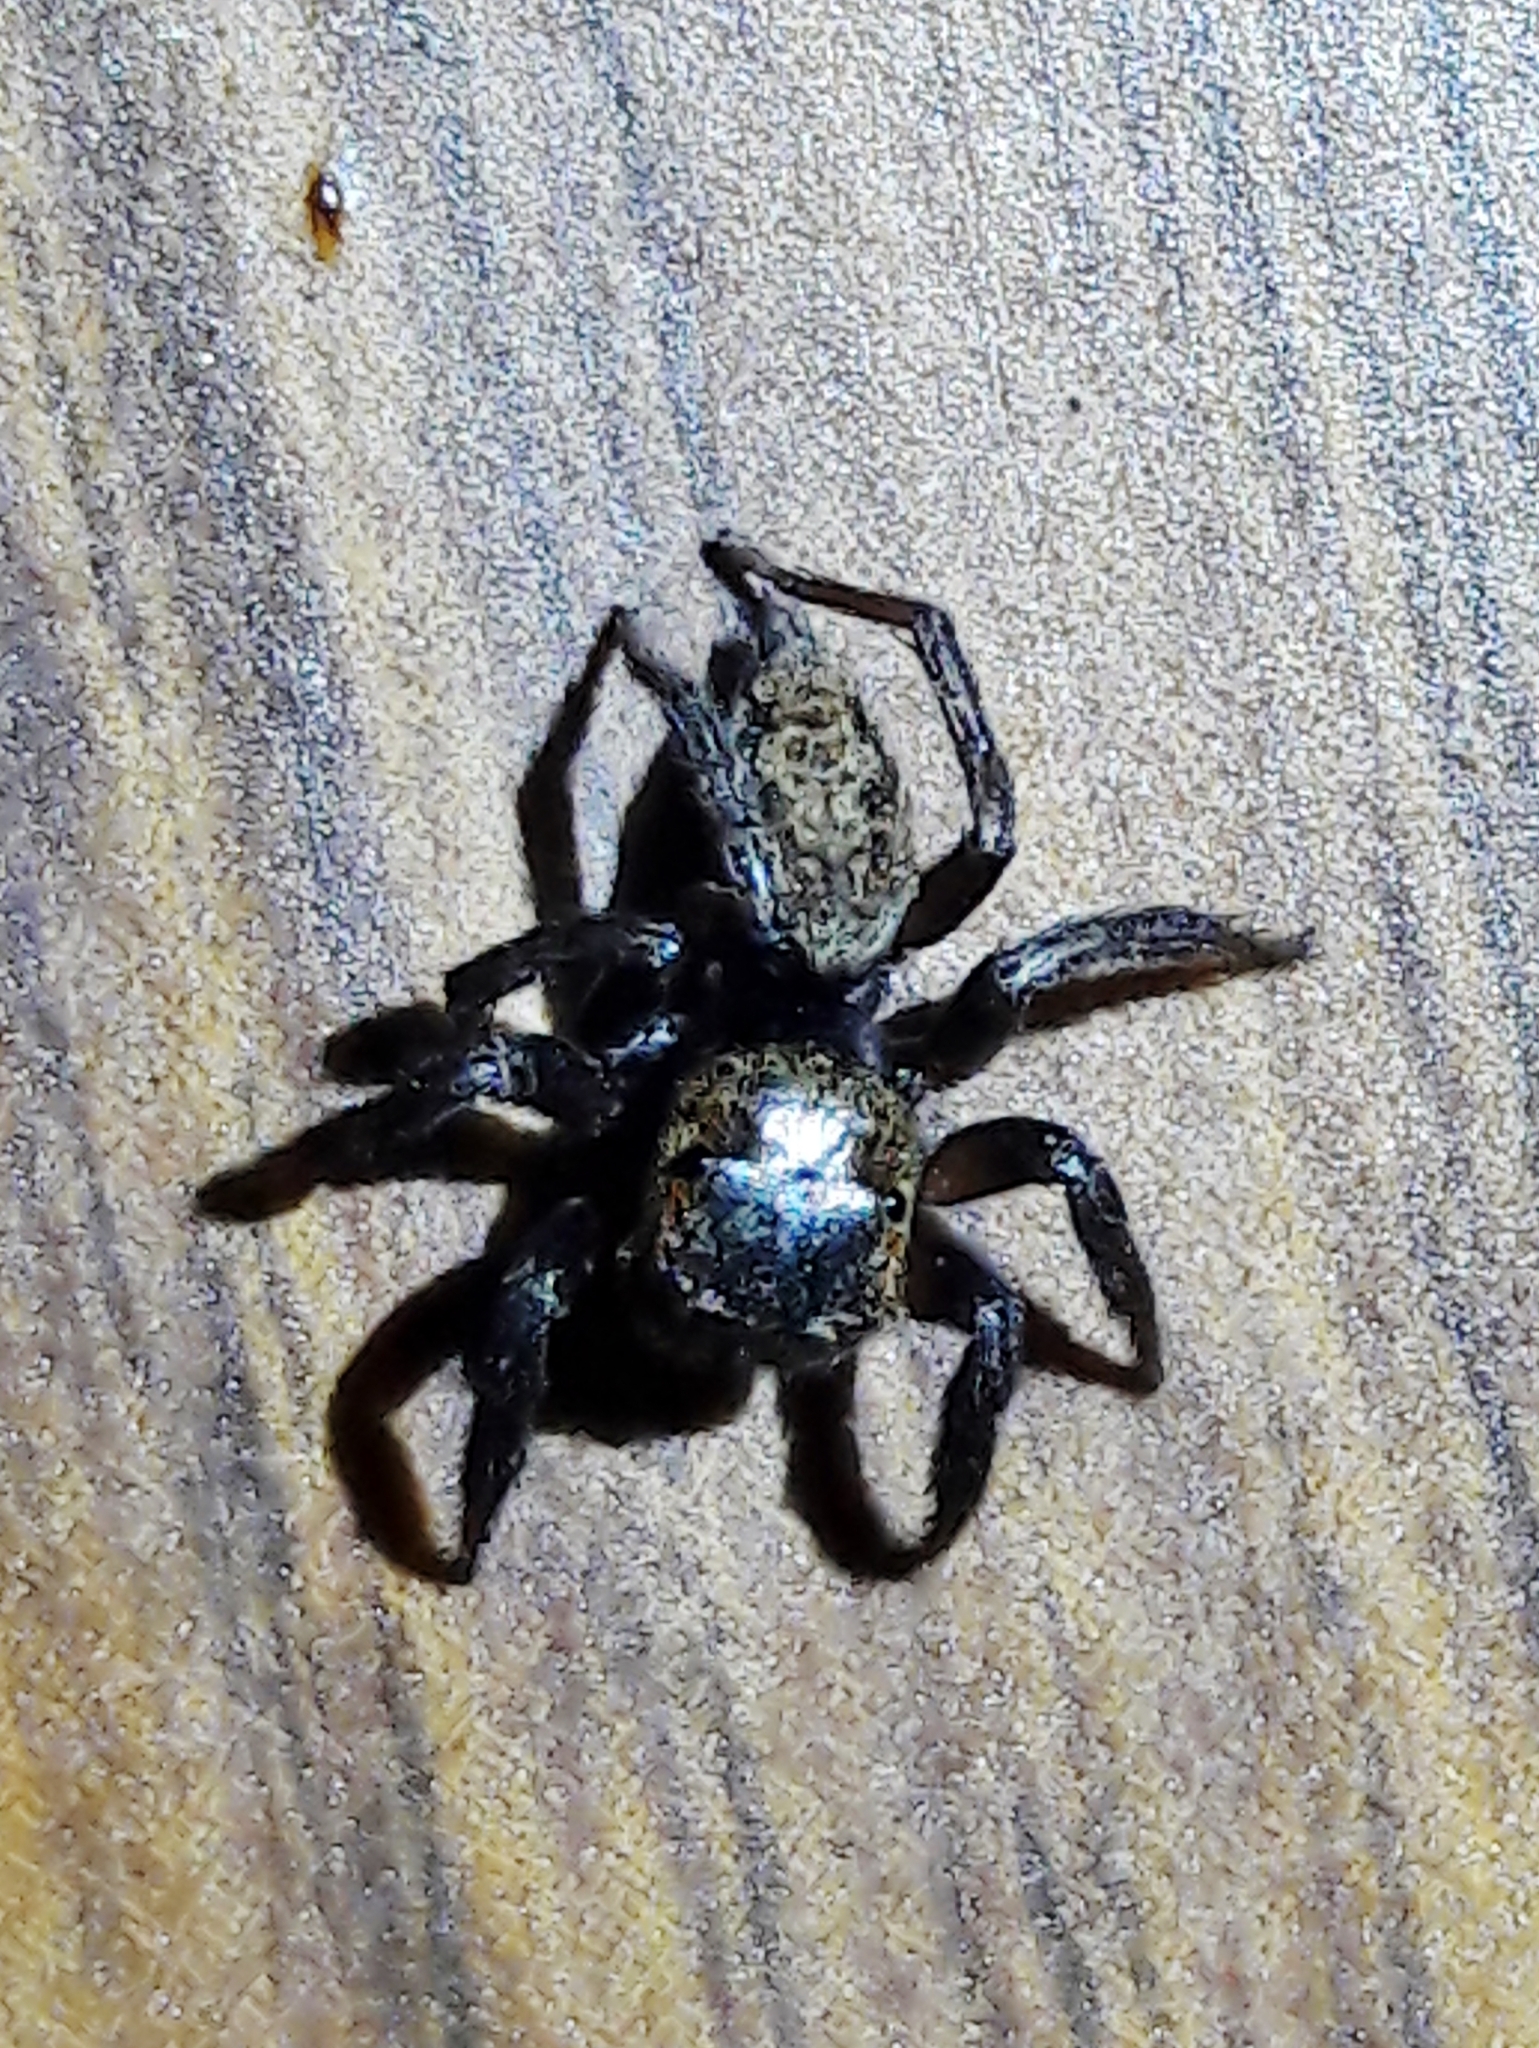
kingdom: Animalia
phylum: Arthropoda
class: Arachnida
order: Araneae
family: Salticidae
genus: Hasarius
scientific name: Hasarius adansoni
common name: Jumping spider
